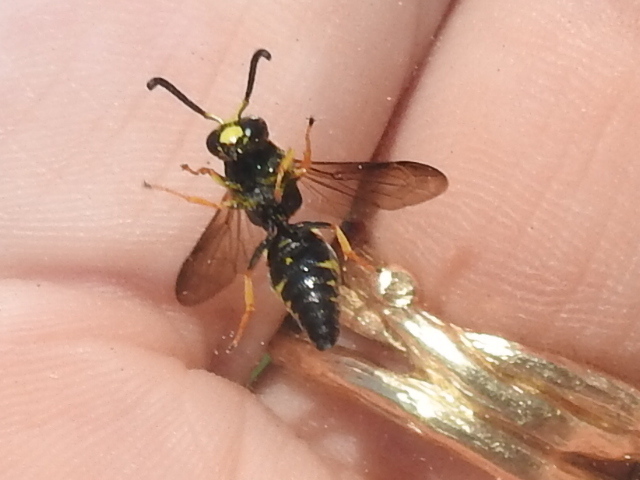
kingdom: Animalia
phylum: Arthropoda
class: Insecta
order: Hymenoptera
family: Eumenidae
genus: Euodynerus
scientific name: Euodynerus foraminatus
